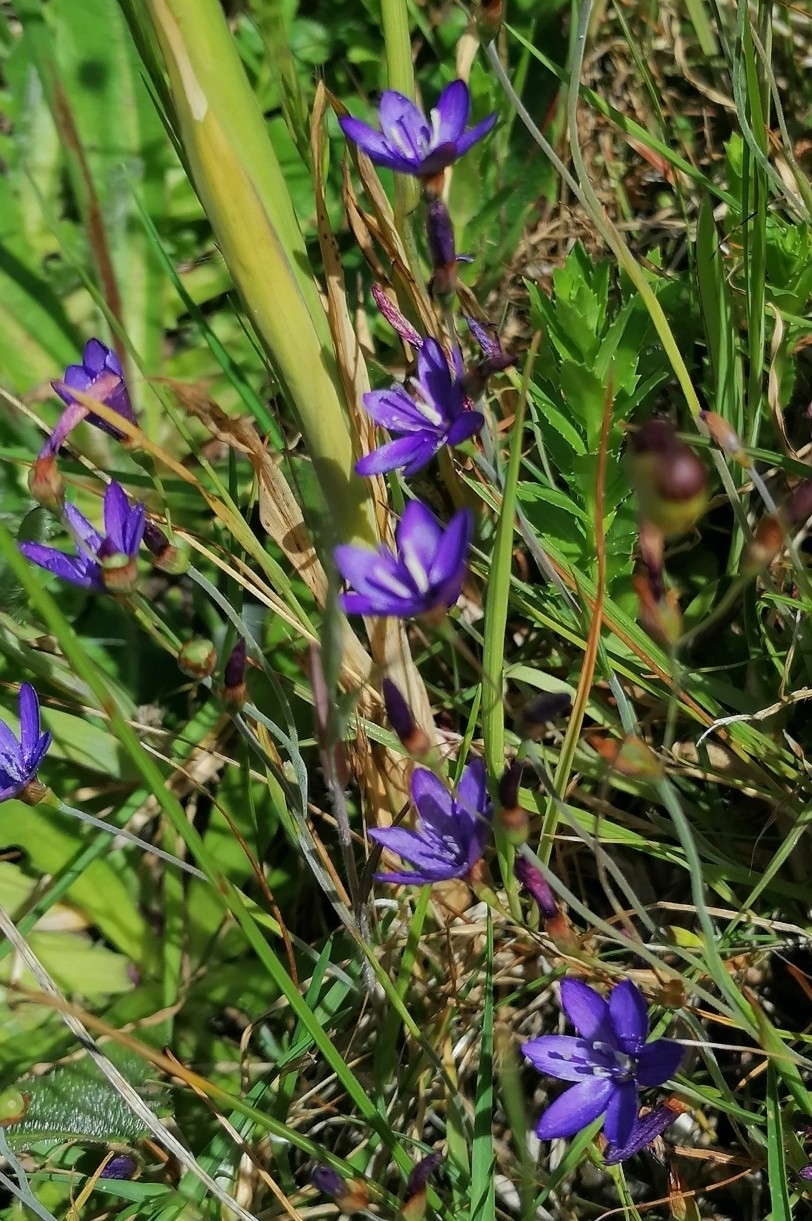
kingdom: Plantae
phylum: Tracheophyta
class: Liliopsida
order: Asparagales
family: Iridaceae
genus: Geissorhiza
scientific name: Geissorhiza aspera
